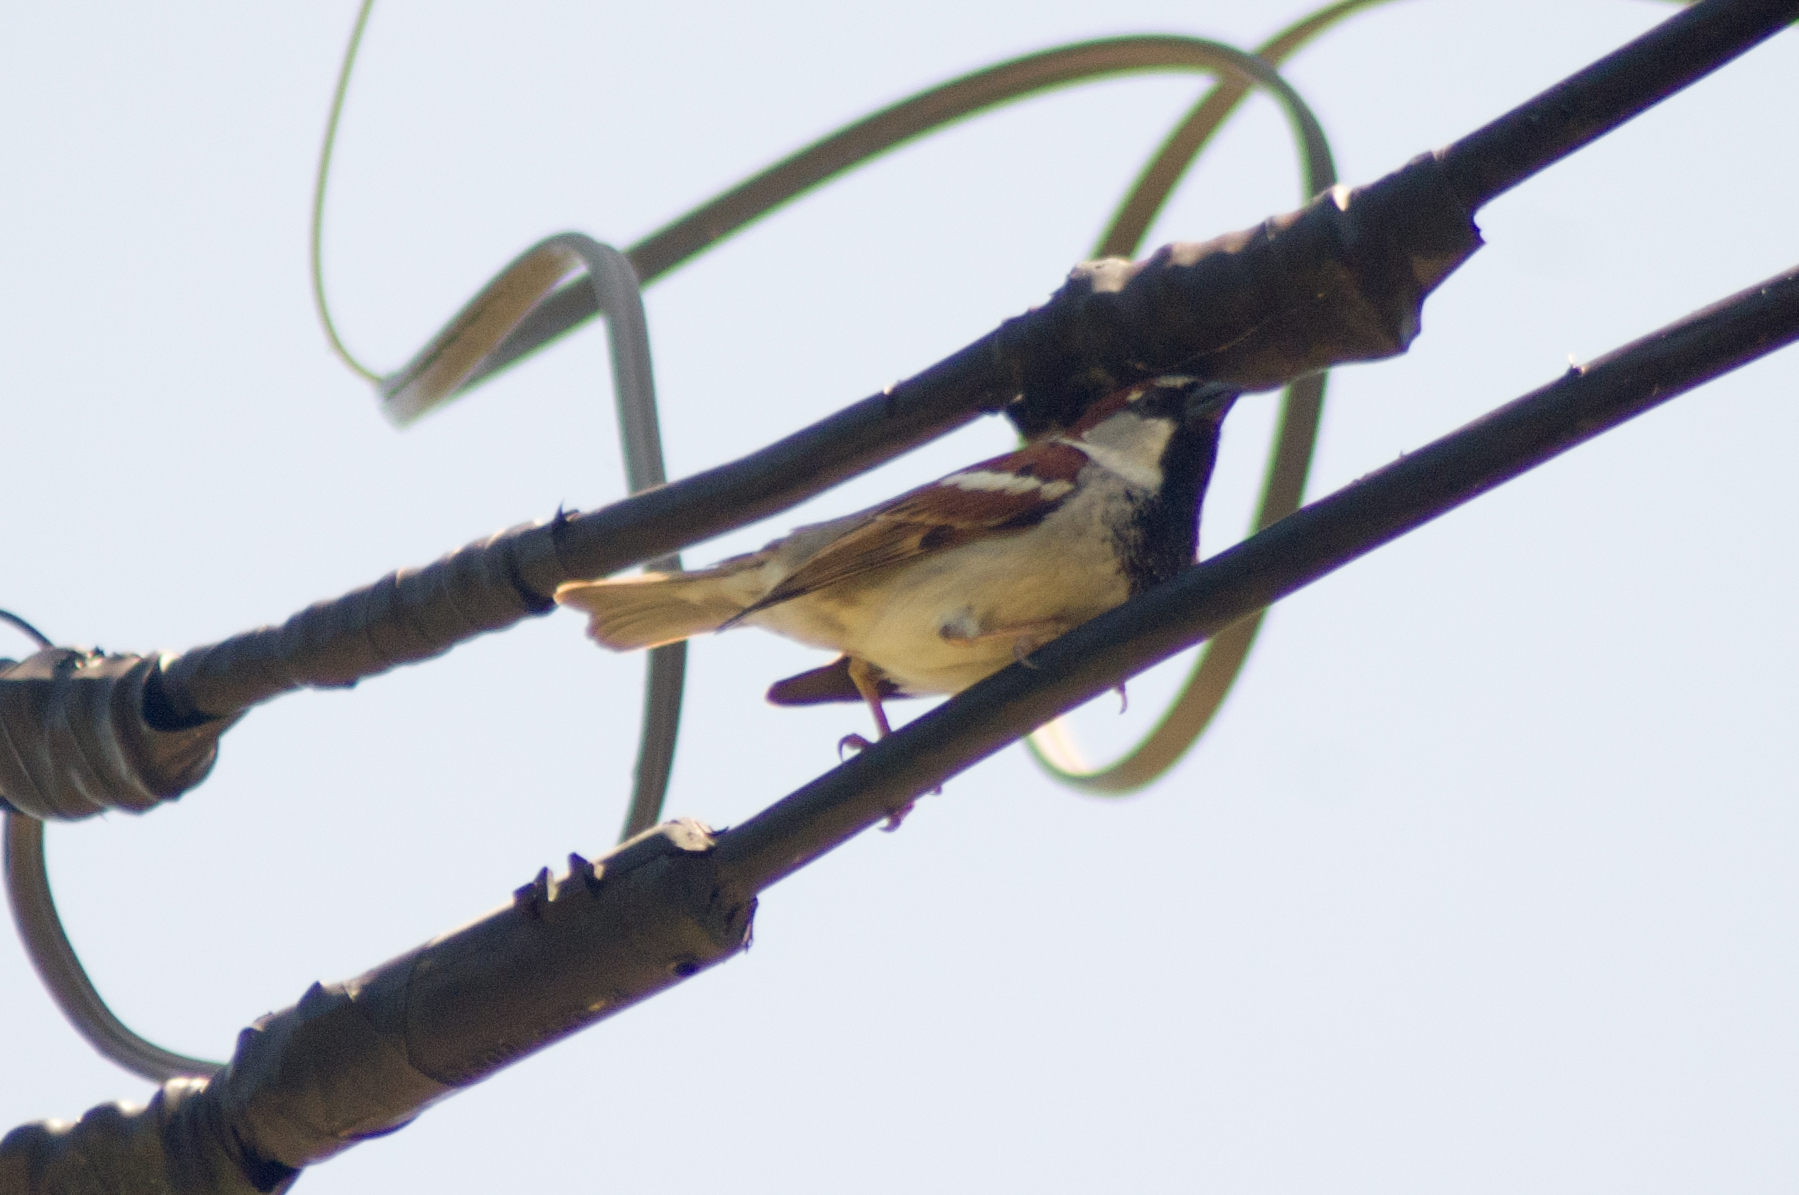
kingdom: Animalia
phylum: Chordata
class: Aves
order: Passeriformes
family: Passeridae
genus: Passer
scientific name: Passer domesticus
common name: House sparrow
